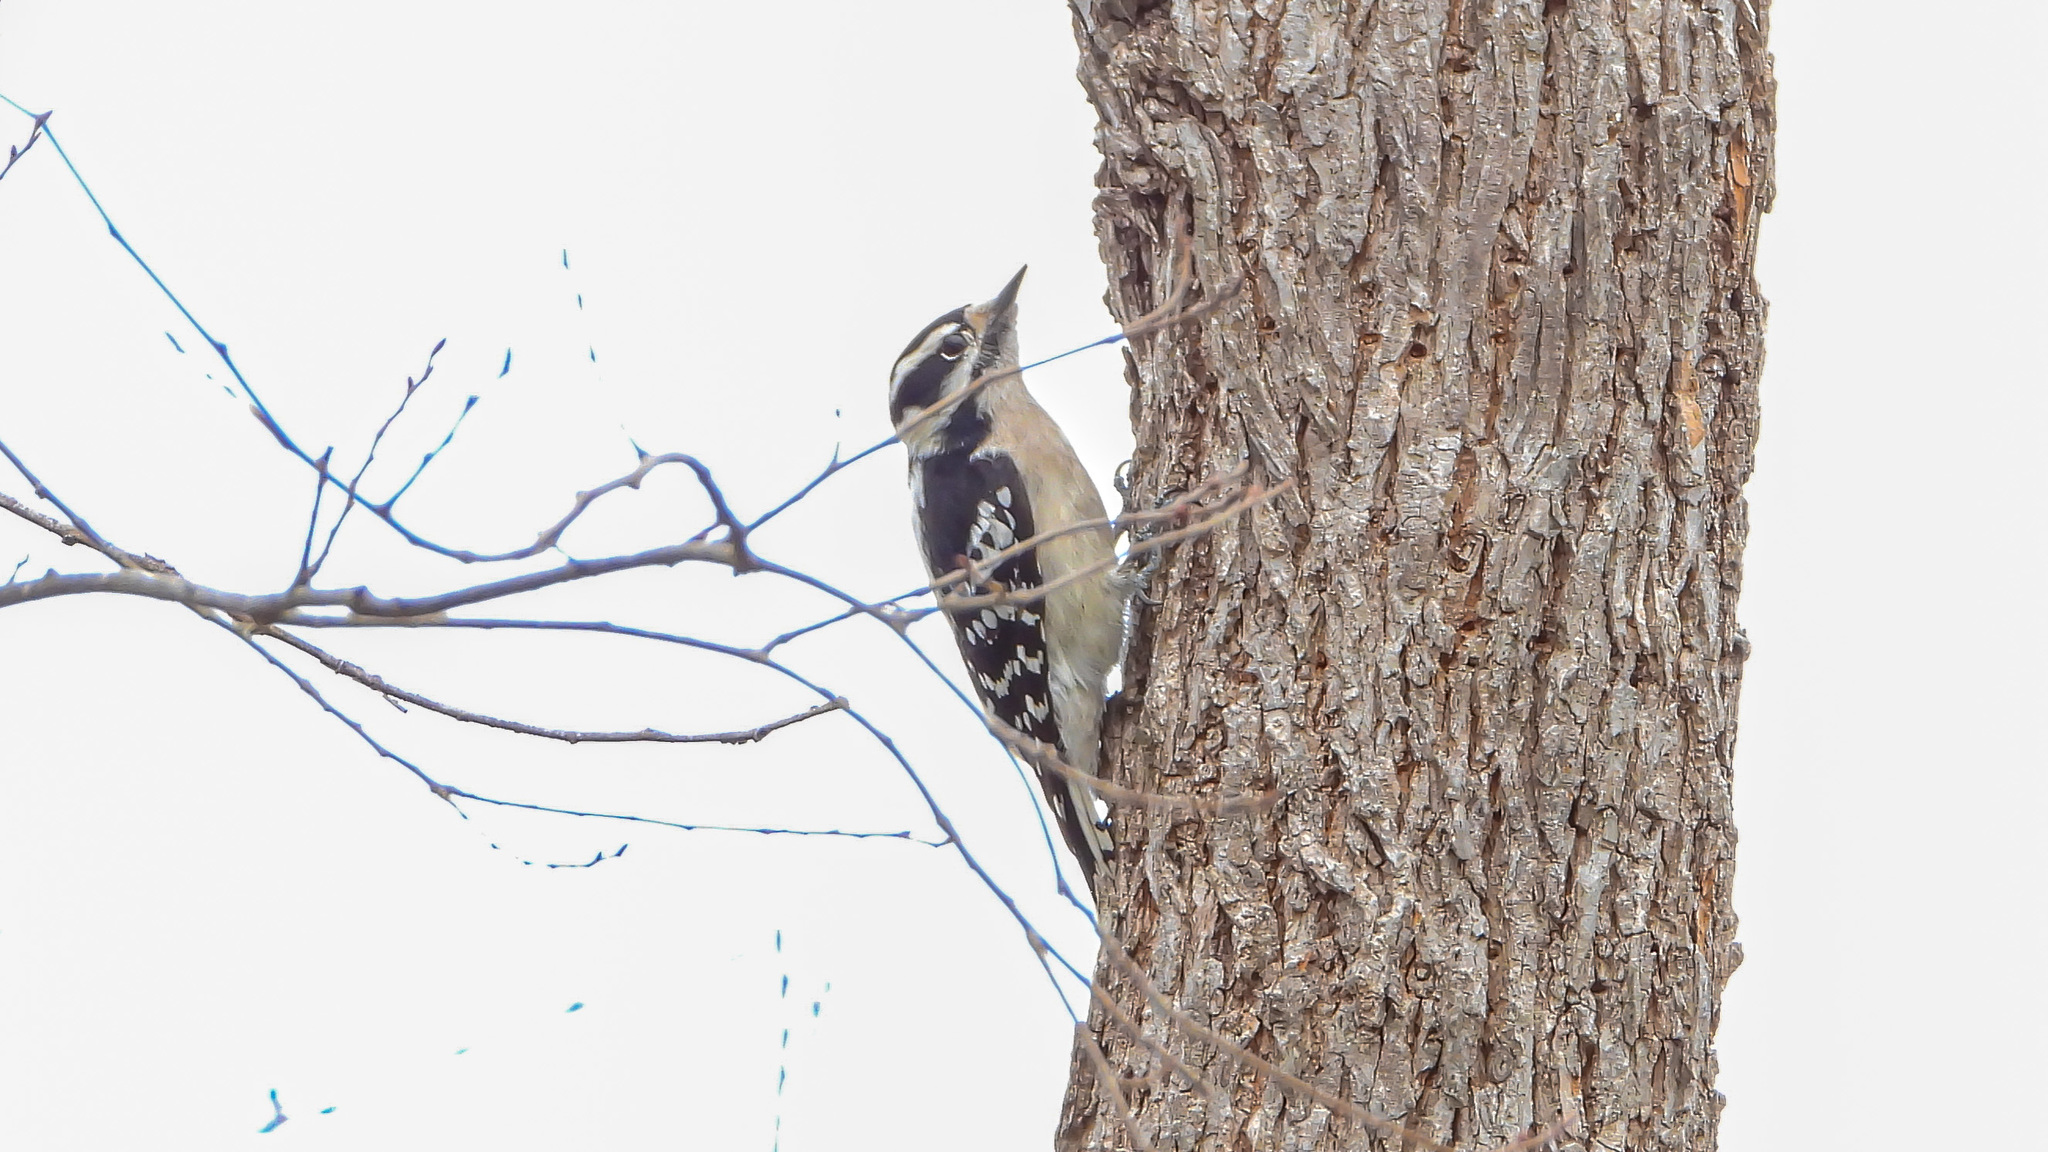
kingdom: Animalia
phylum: Chordata
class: Aves
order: Piciformes
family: Picidae
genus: Dryobates
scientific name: Dryobates pubescens
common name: Downy woodpecker
